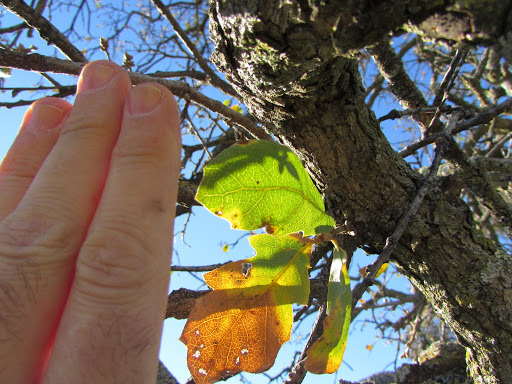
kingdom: Plantae
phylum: Tracheophyta
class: Magnoliopsida
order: Fagales
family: Fagaceae
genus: Quercus
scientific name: Quercus douglasii
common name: Blue oak
